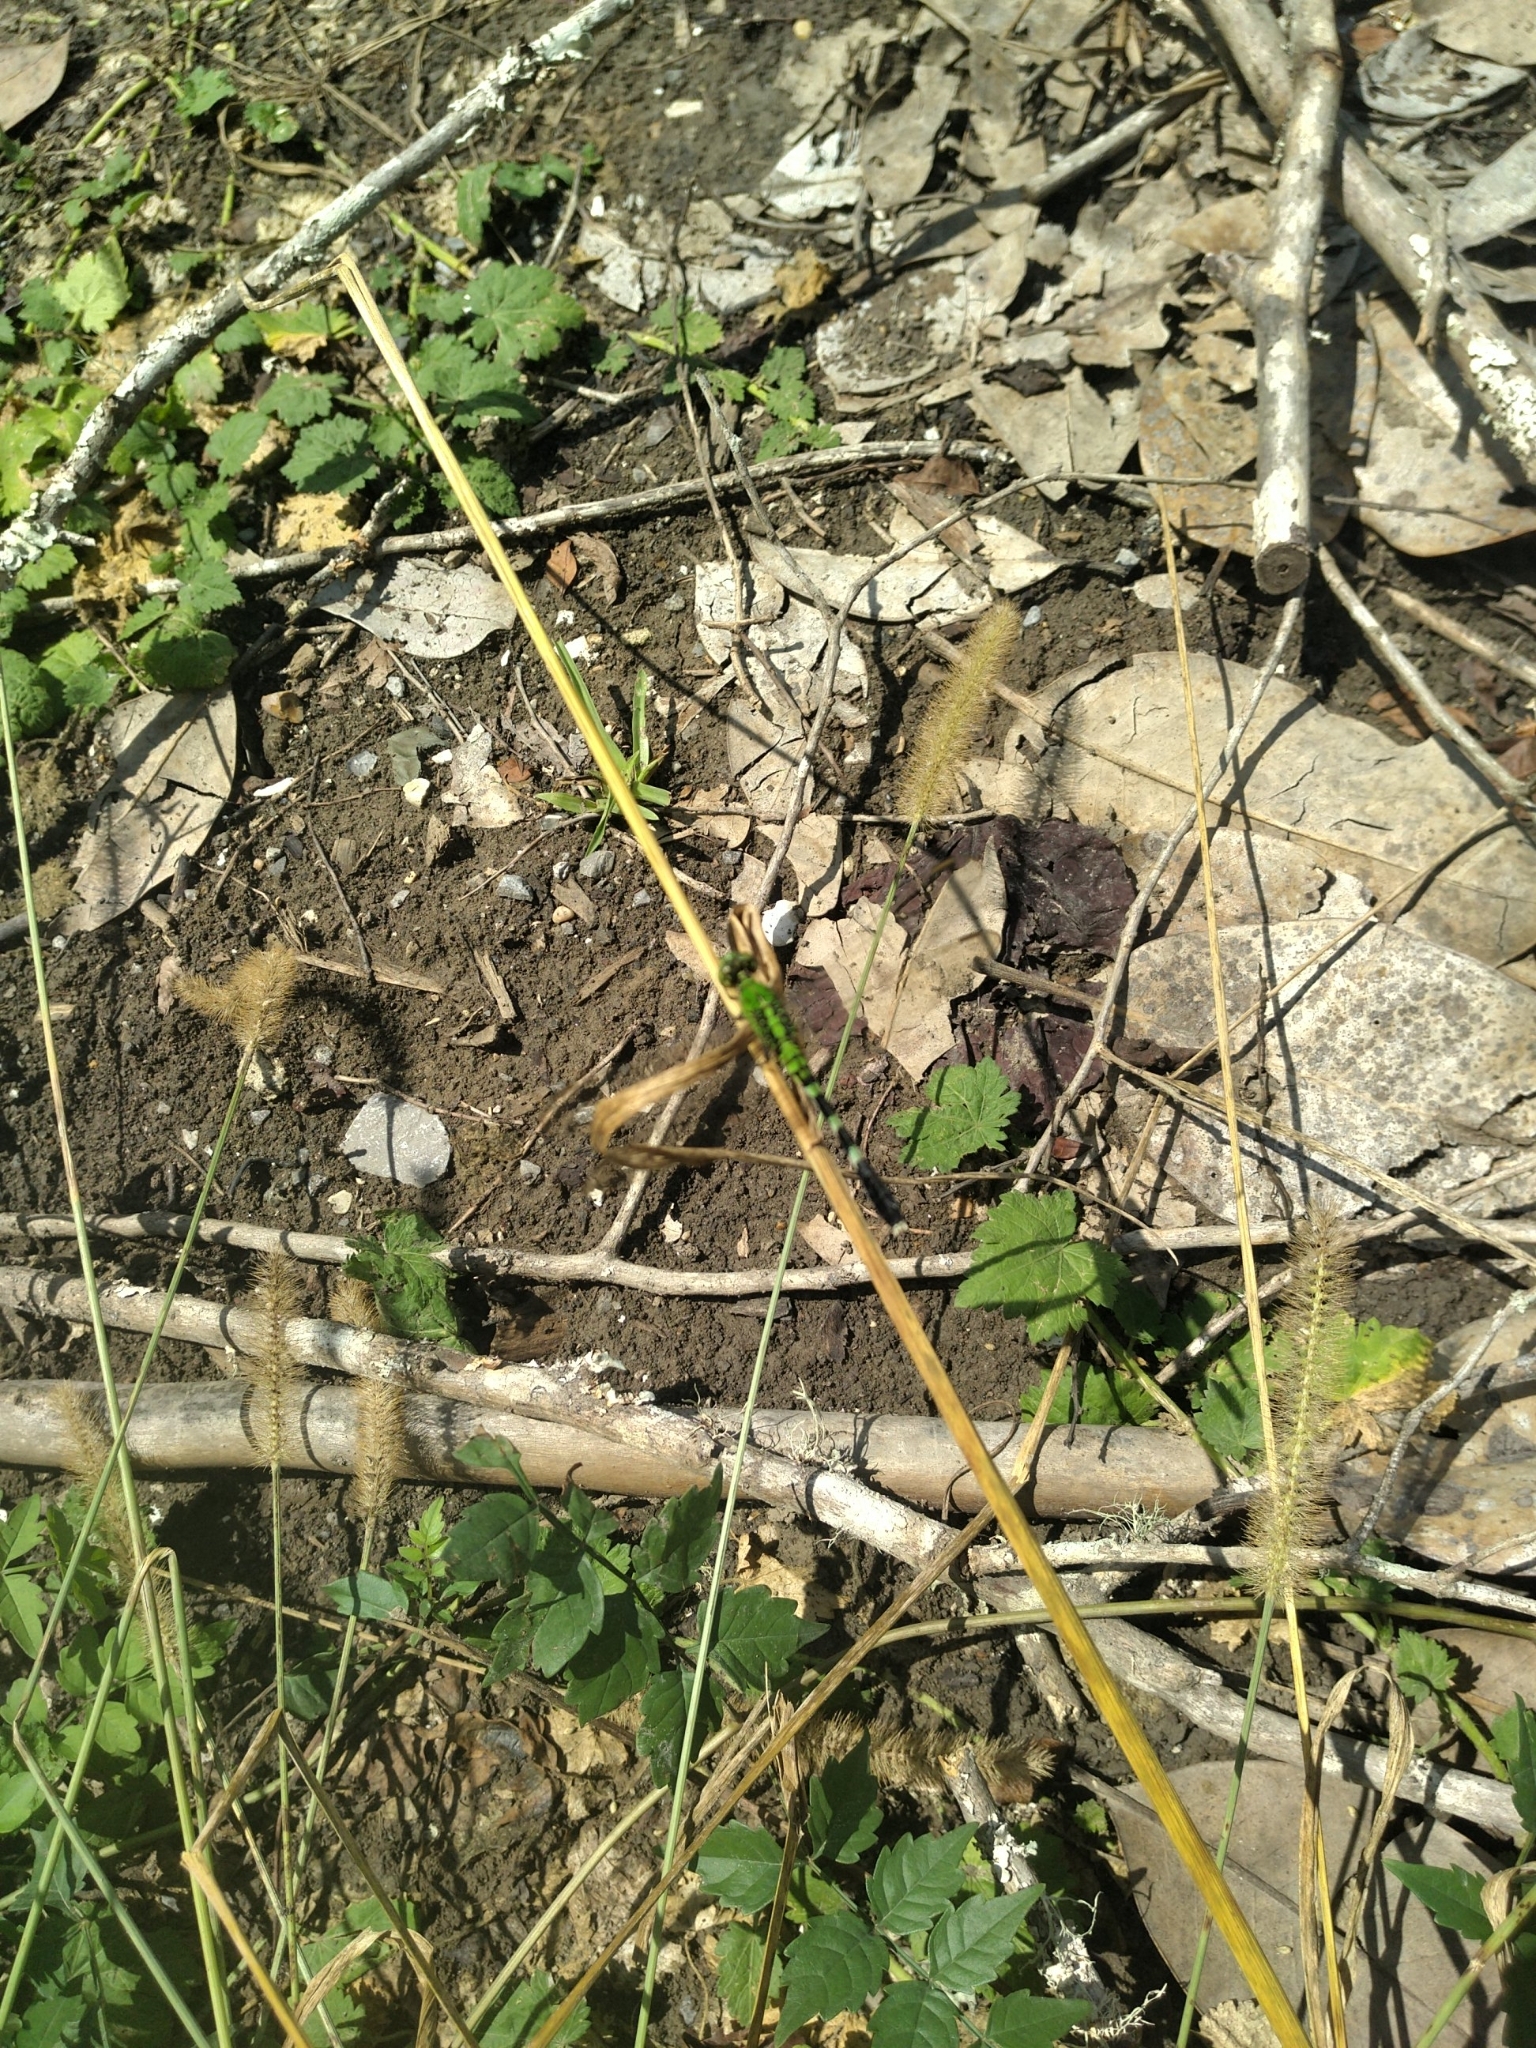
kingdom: Animalia
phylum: Arthropoda
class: Insecta
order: Odonata
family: Libellulidae
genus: Erythemis
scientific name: Erythemis simplicicollis
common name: Eastern pondhawk
